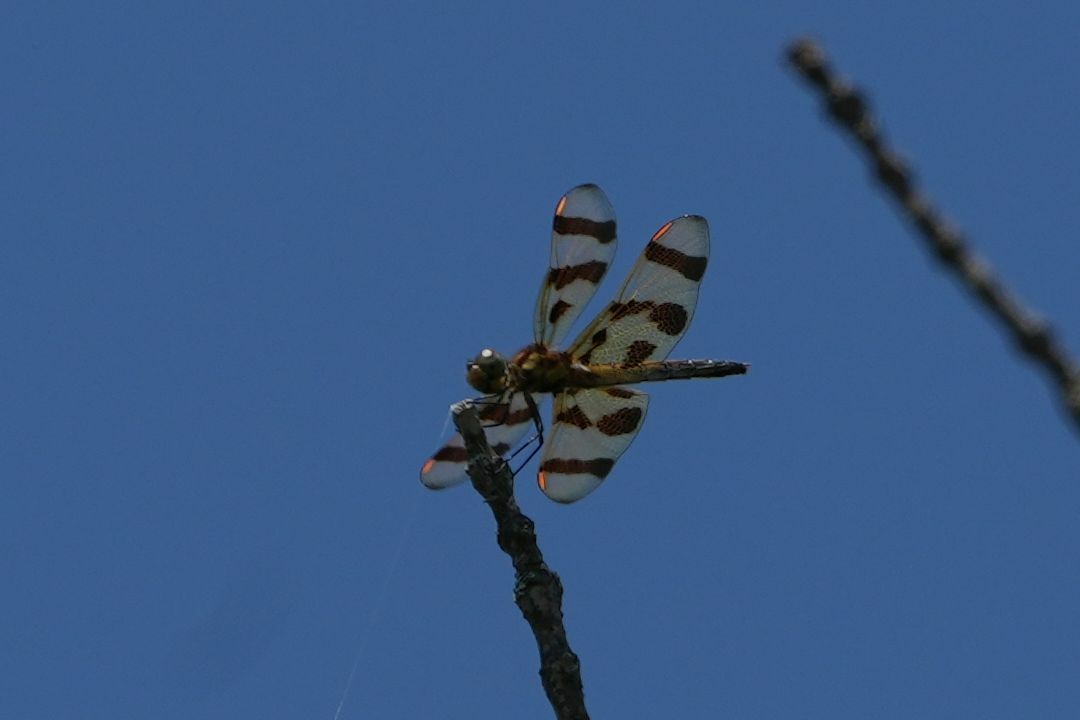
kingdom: Animalia
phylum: Arthropoda
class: Insecta
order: Odonata
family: Libellulidae
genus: Celithemis
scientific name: Celithemis eponina
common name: Halloween pennant
